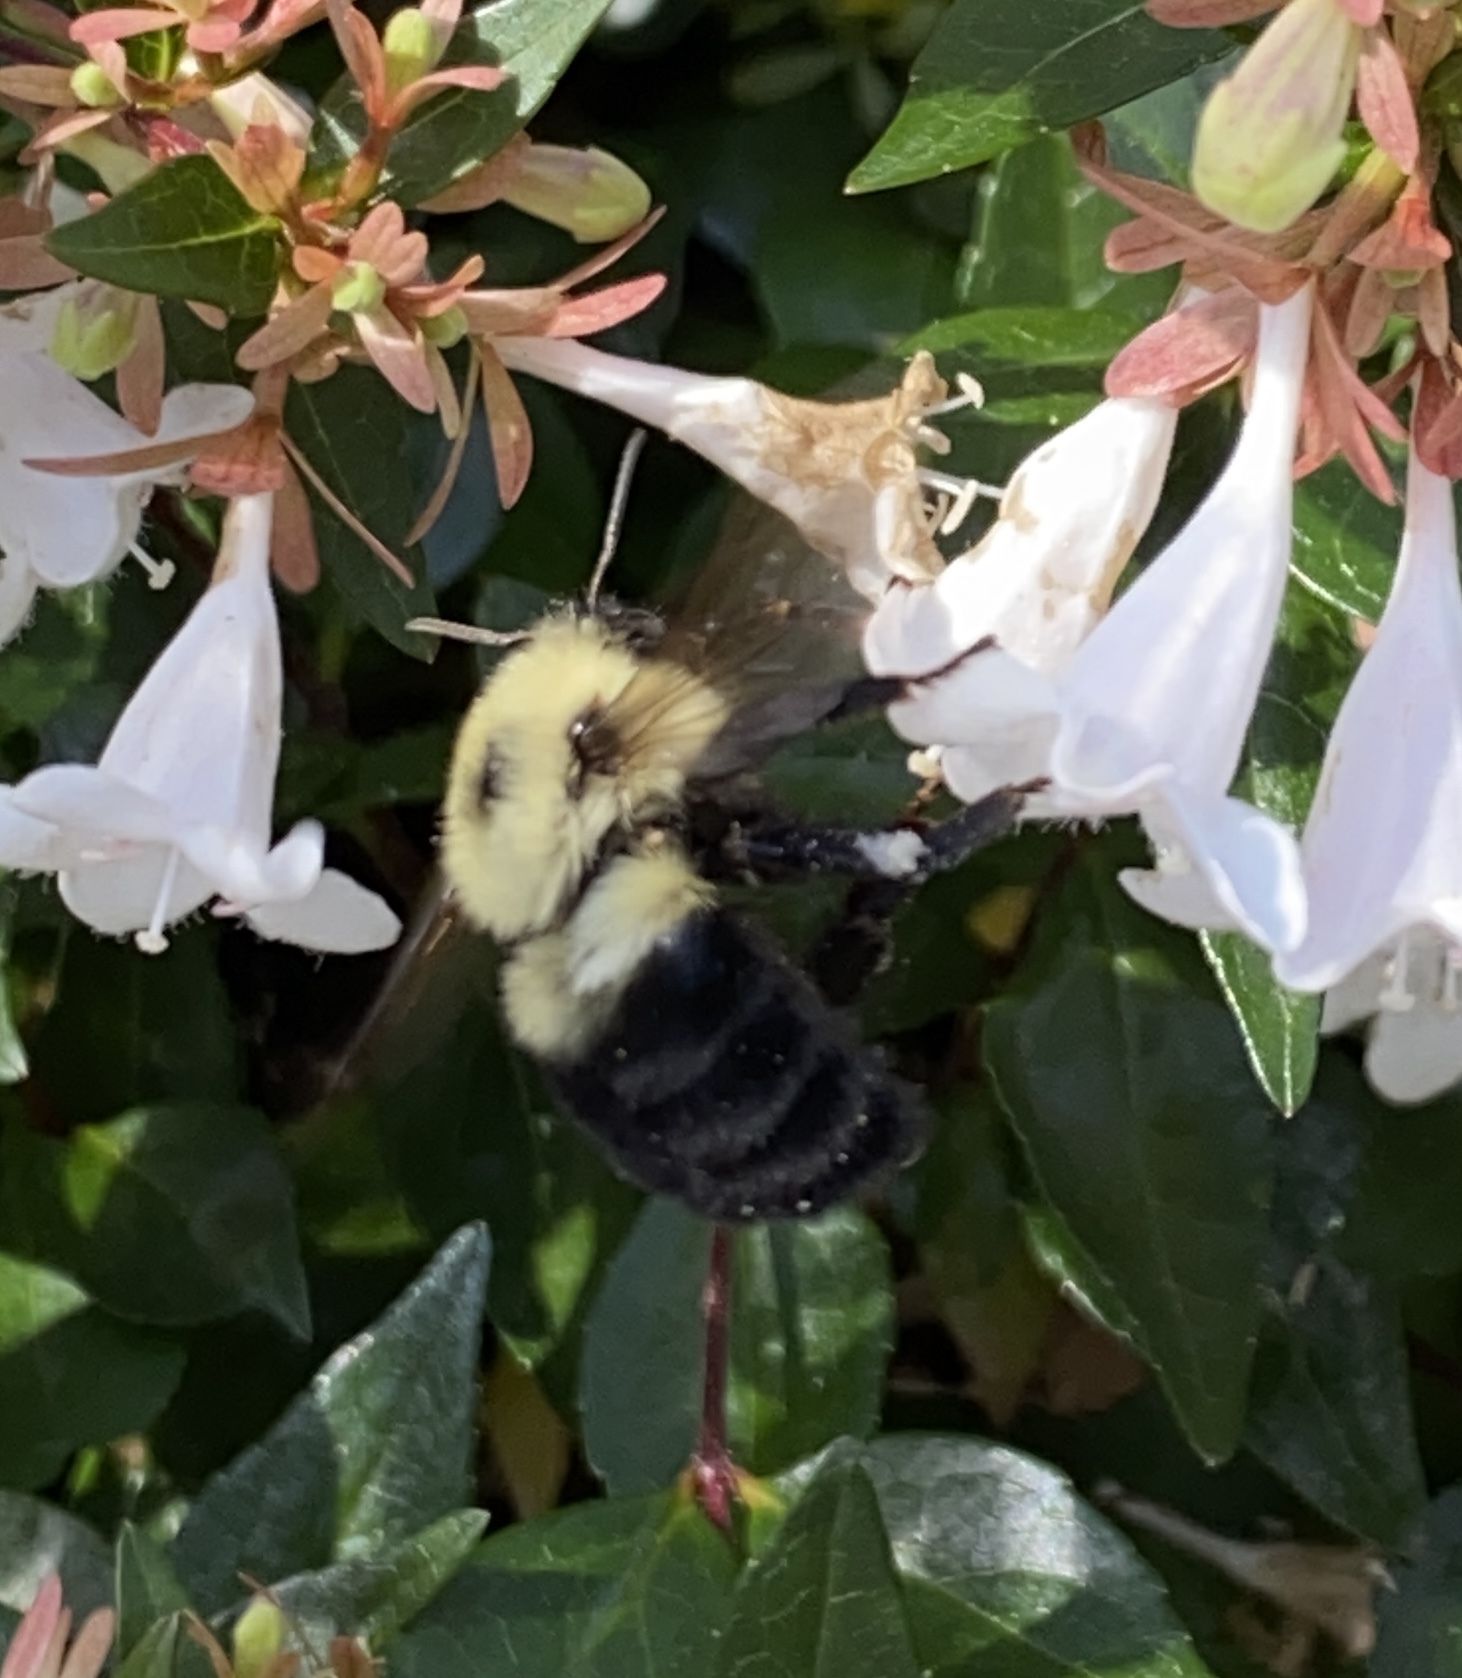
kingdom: Animalia
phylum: Arthropoda
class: Insecta
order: Hymenoptera
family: Apidae
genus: Bombus
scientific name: Bombus bimaculatus
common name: Two-spotted bumble bee
